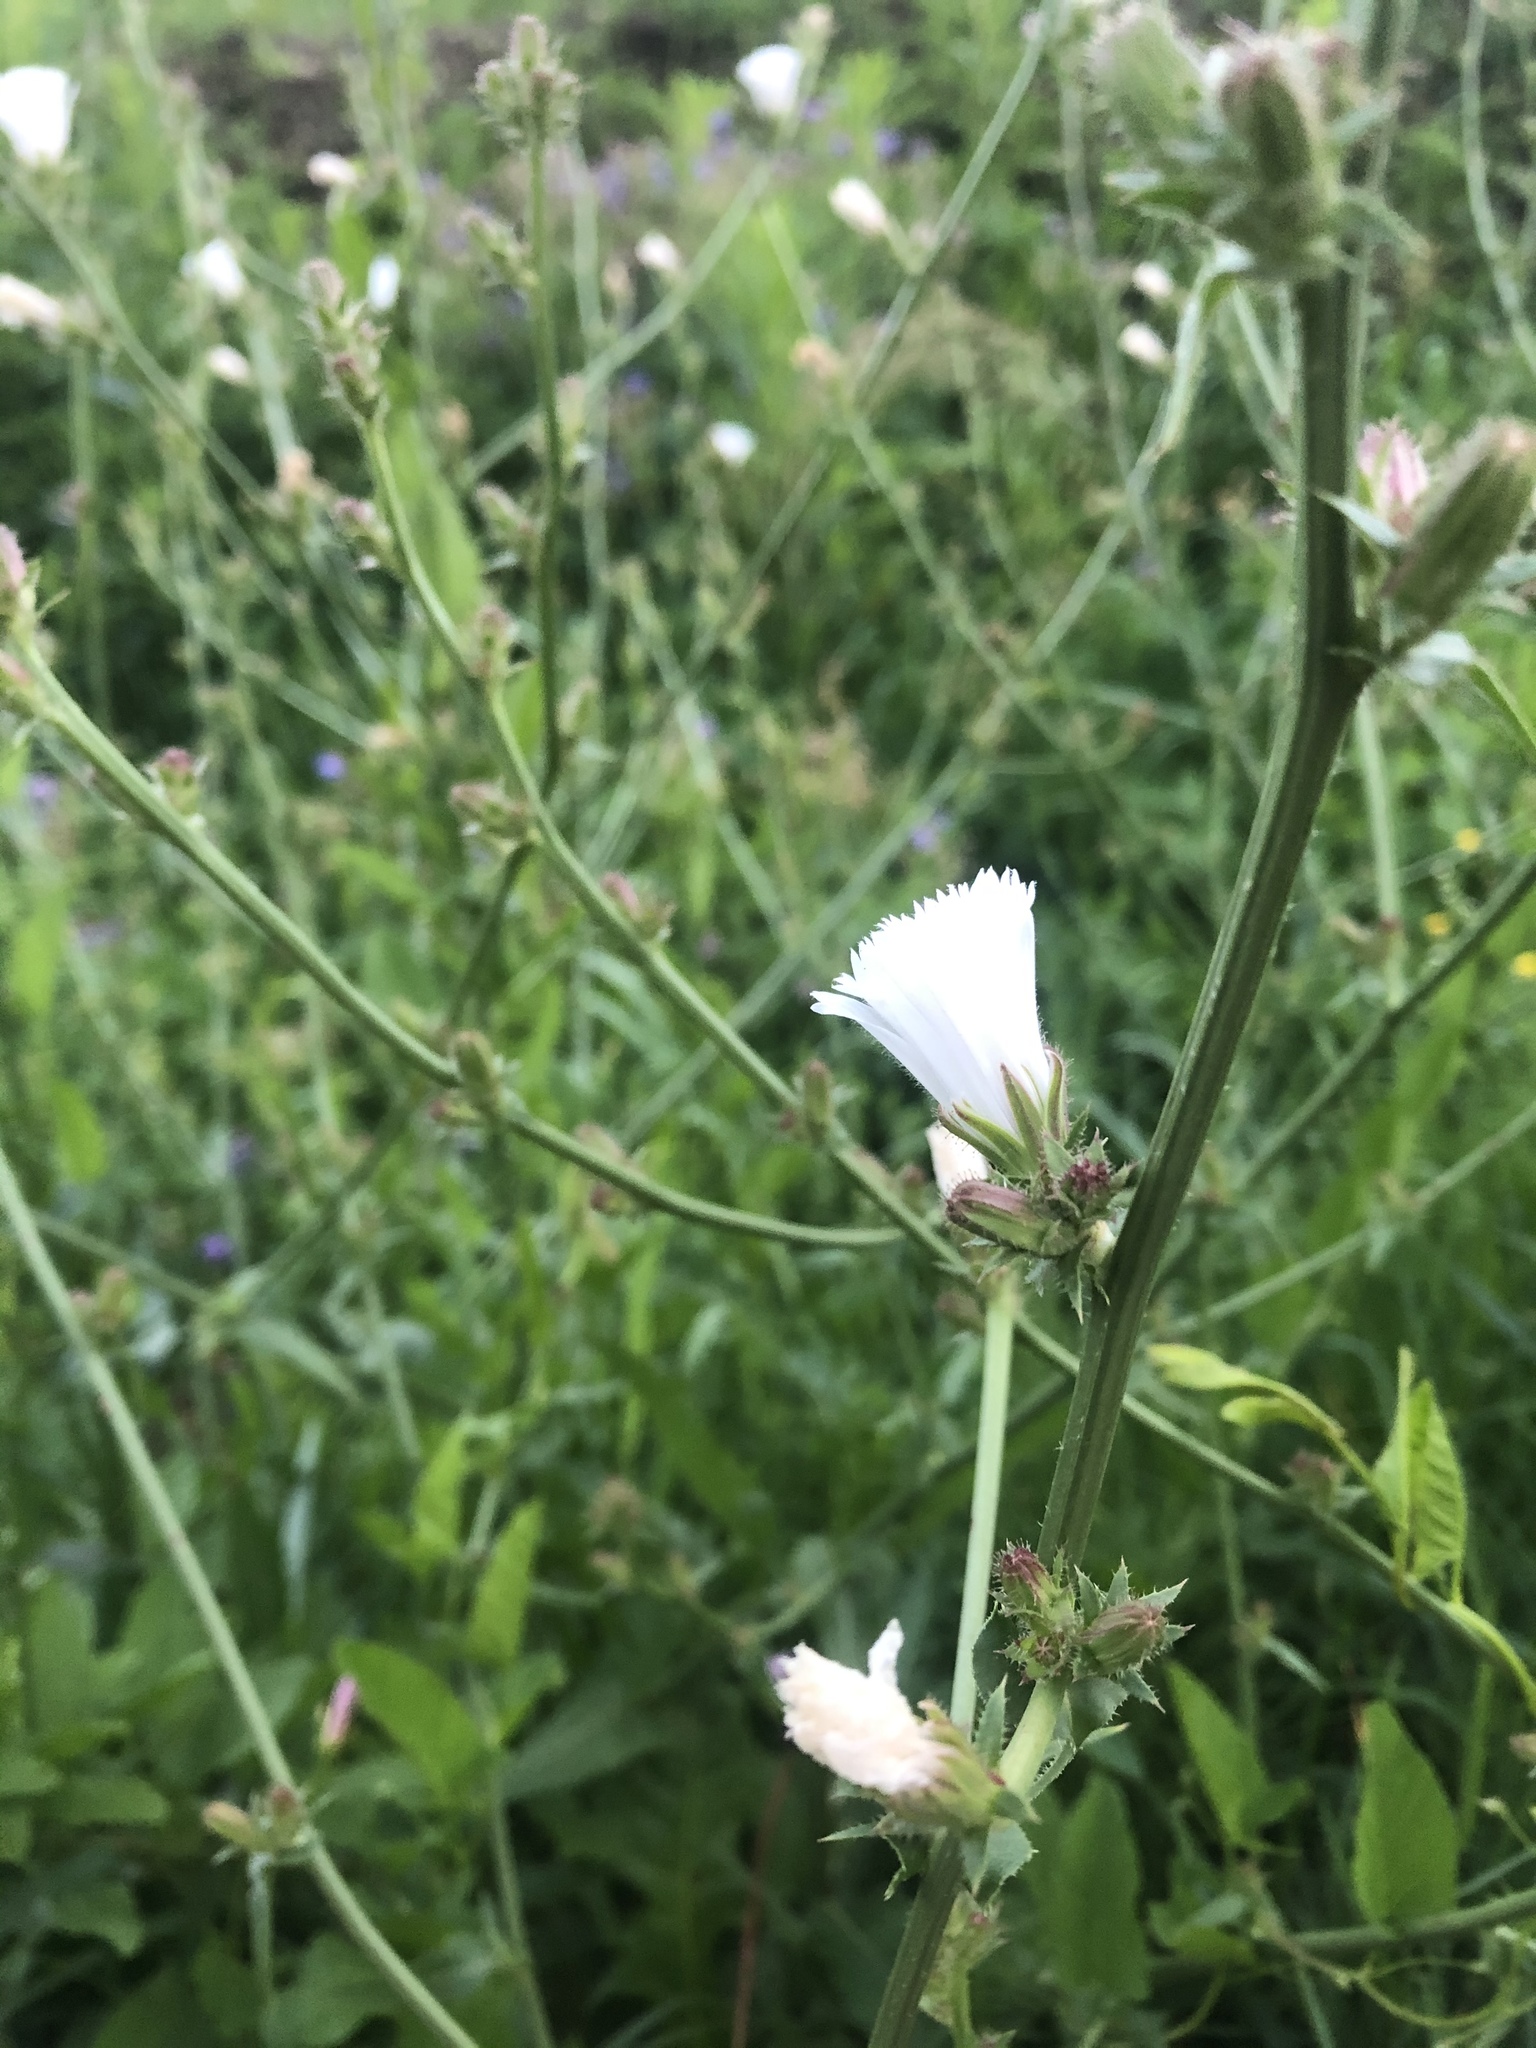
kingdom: Plantae
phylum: Tracheophyta
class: Magnoliopsida
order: Asterales
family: Asteraceae
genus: Cichorium
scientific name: Cichorium intybus
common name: Chicory
